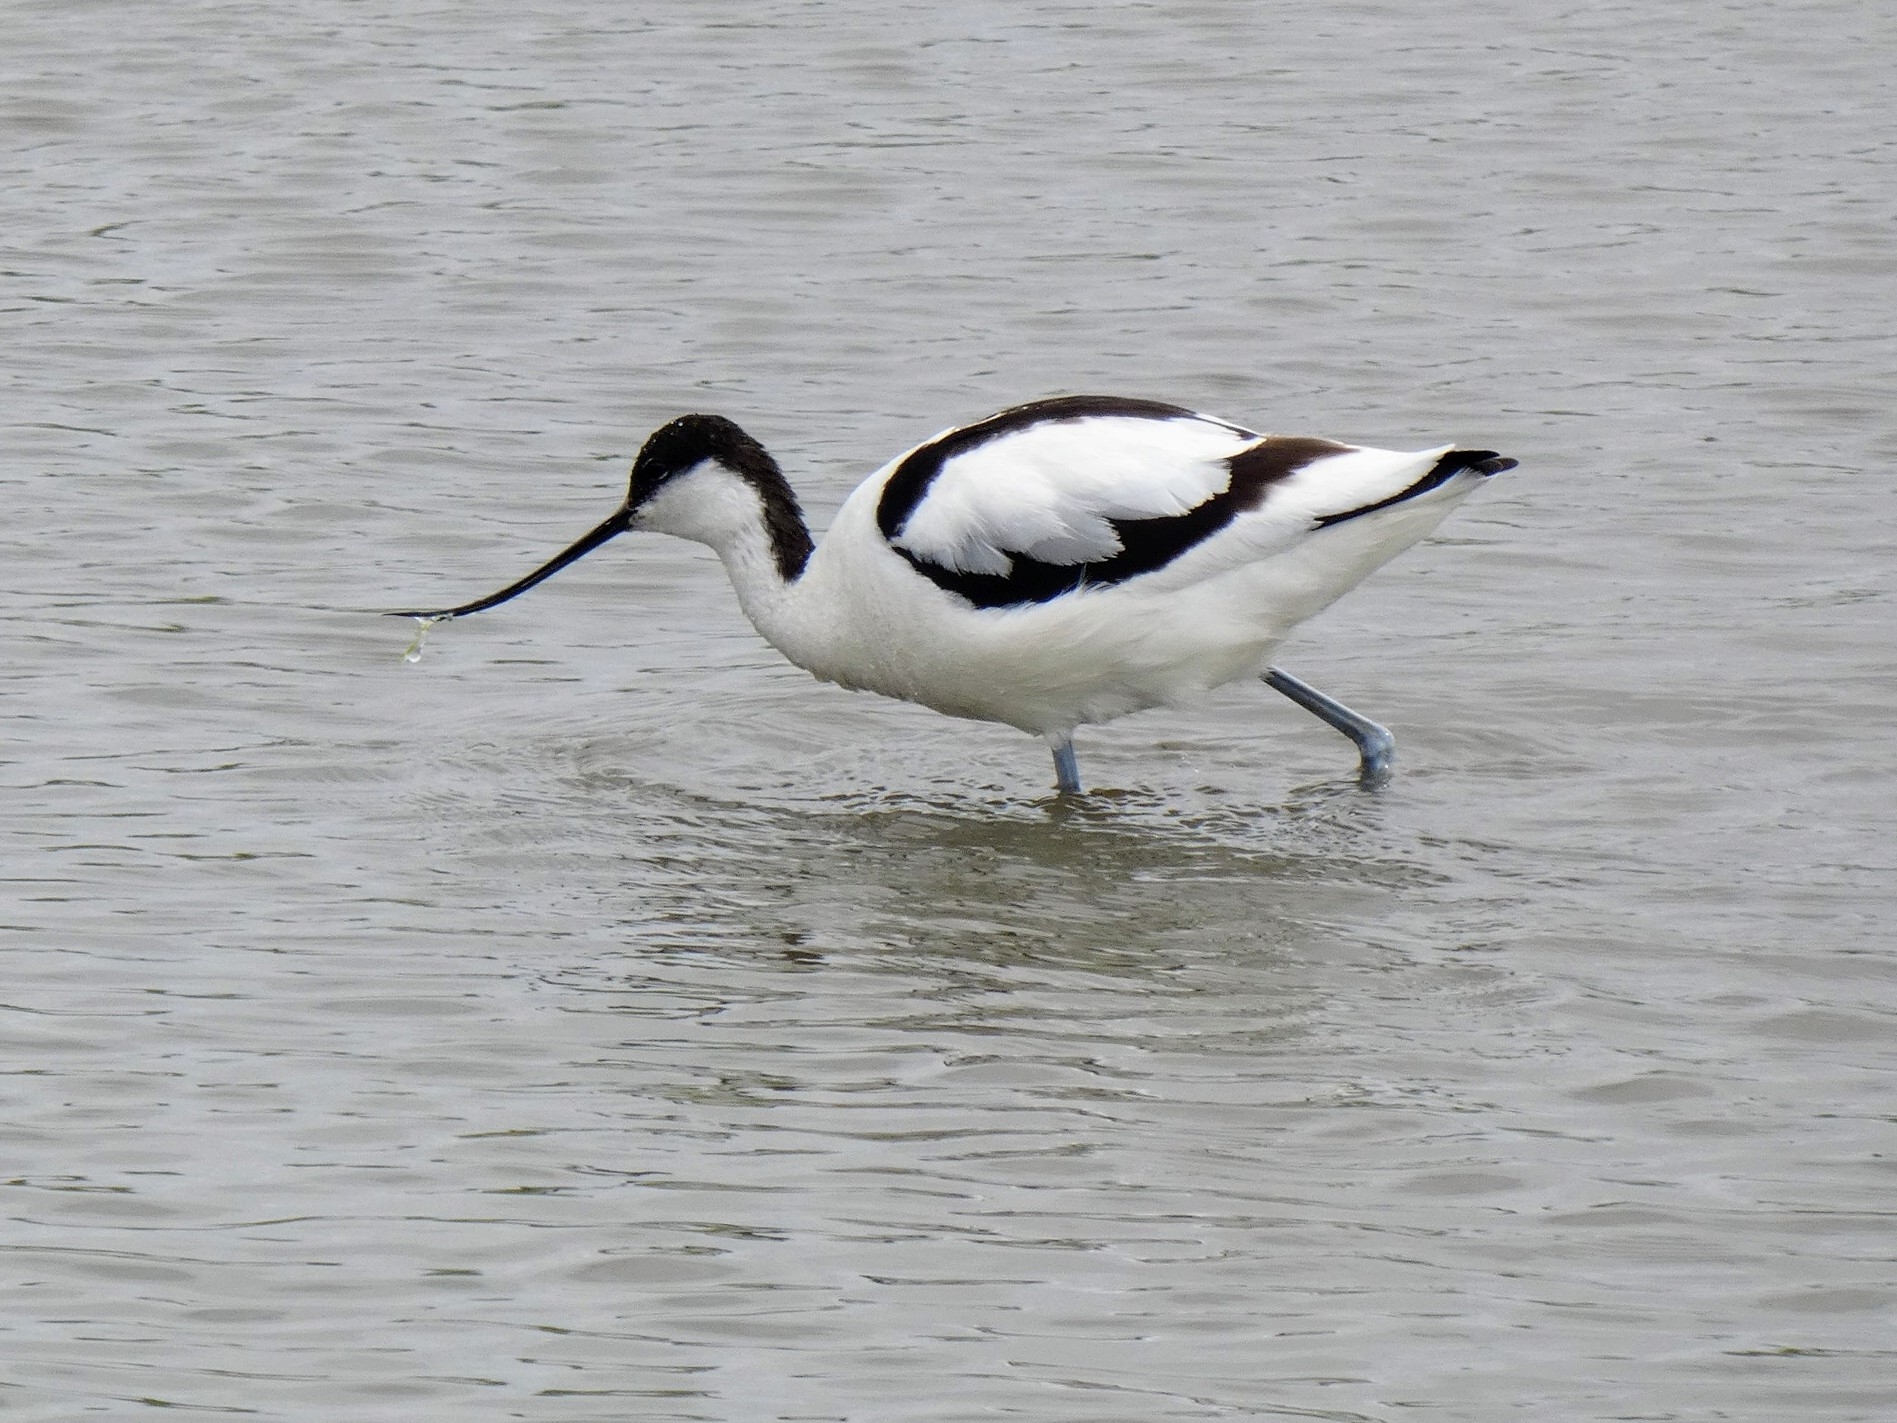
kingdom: Animalia
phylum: Chordata
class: Aves
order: Charadriiformes
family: Recurvirostridae
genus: Recurvirostra
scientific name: Recurvirostra avosetta
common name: Pied avocet
